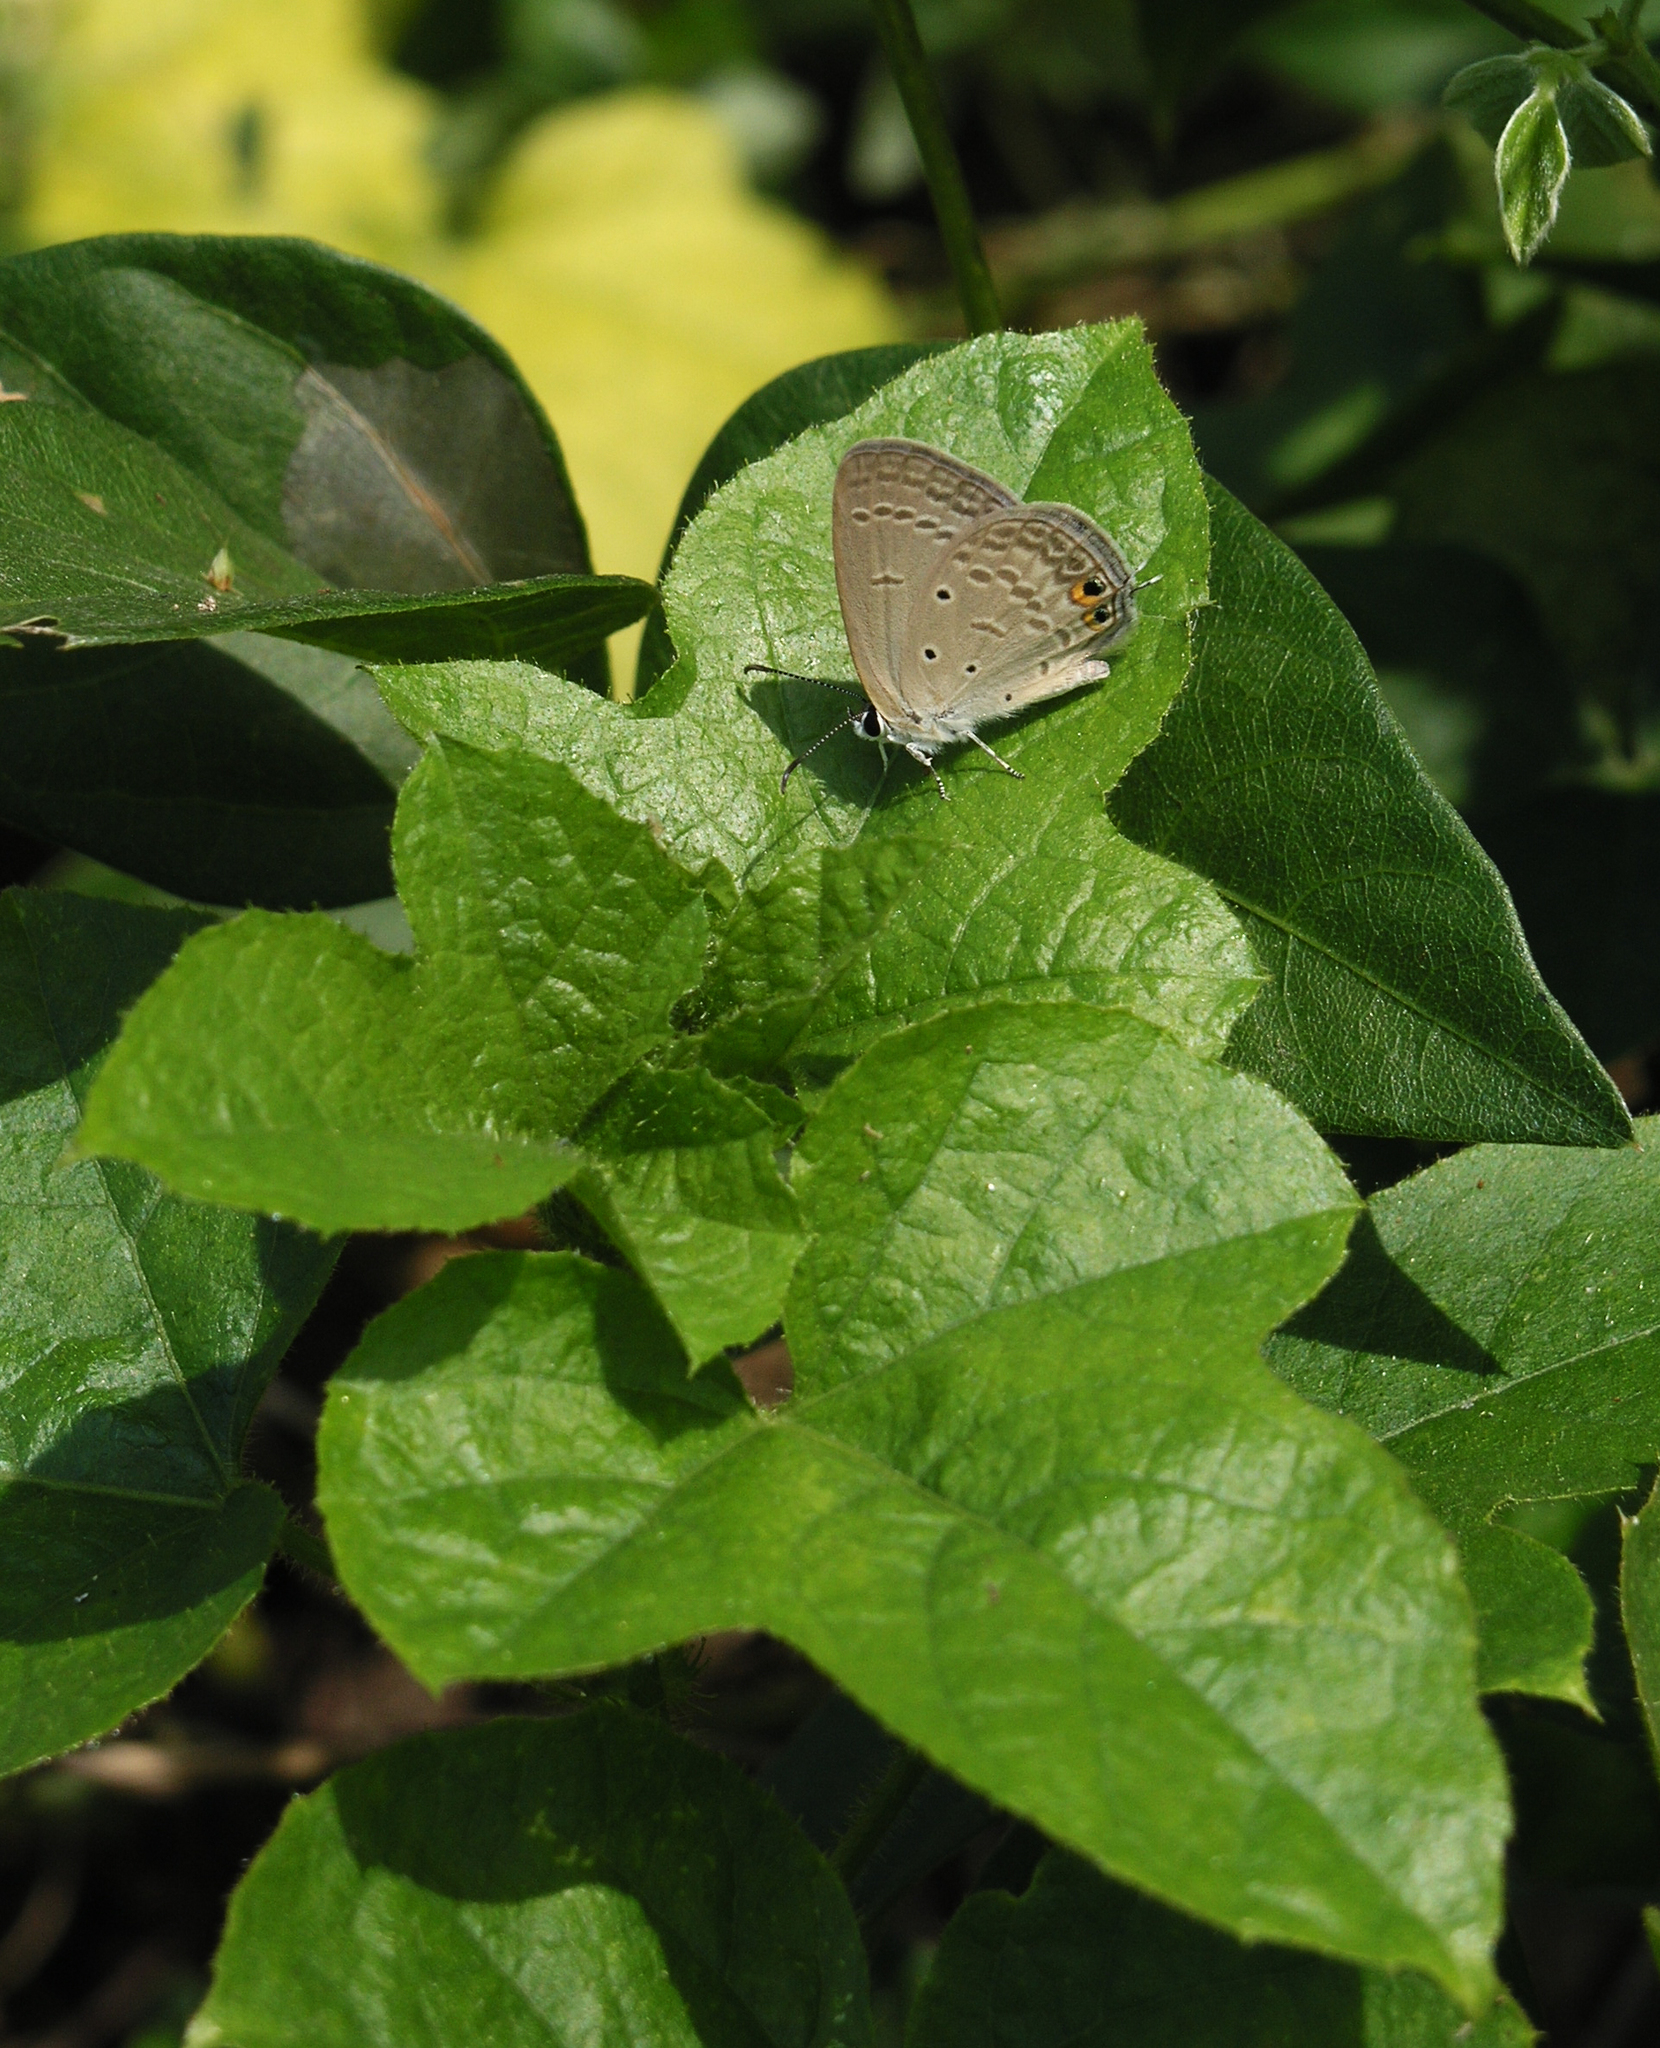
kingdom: Animalia
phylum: Arthropoda
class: Insecta
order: Lepidoptera
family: Lycaenidae
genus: Euchrysops
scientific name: Euchrysops cnejus
